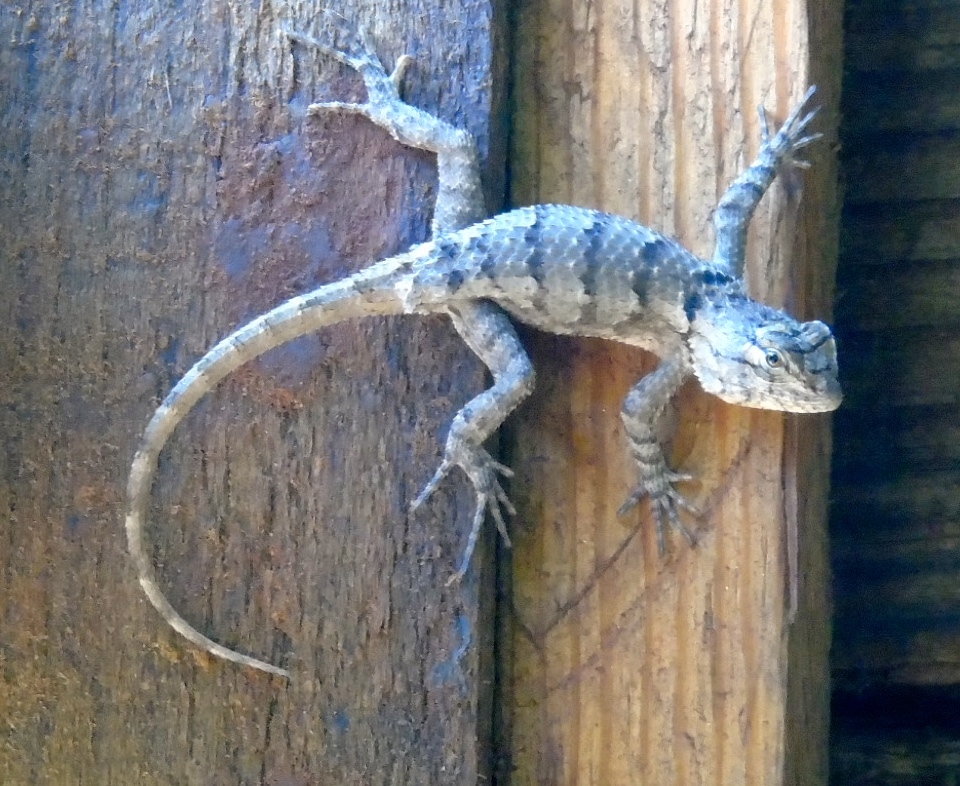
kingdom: Animalia
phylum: Chordata
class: Squamata
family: Phrynosomatidae
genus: Sceloporus
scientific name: Sceloporus
